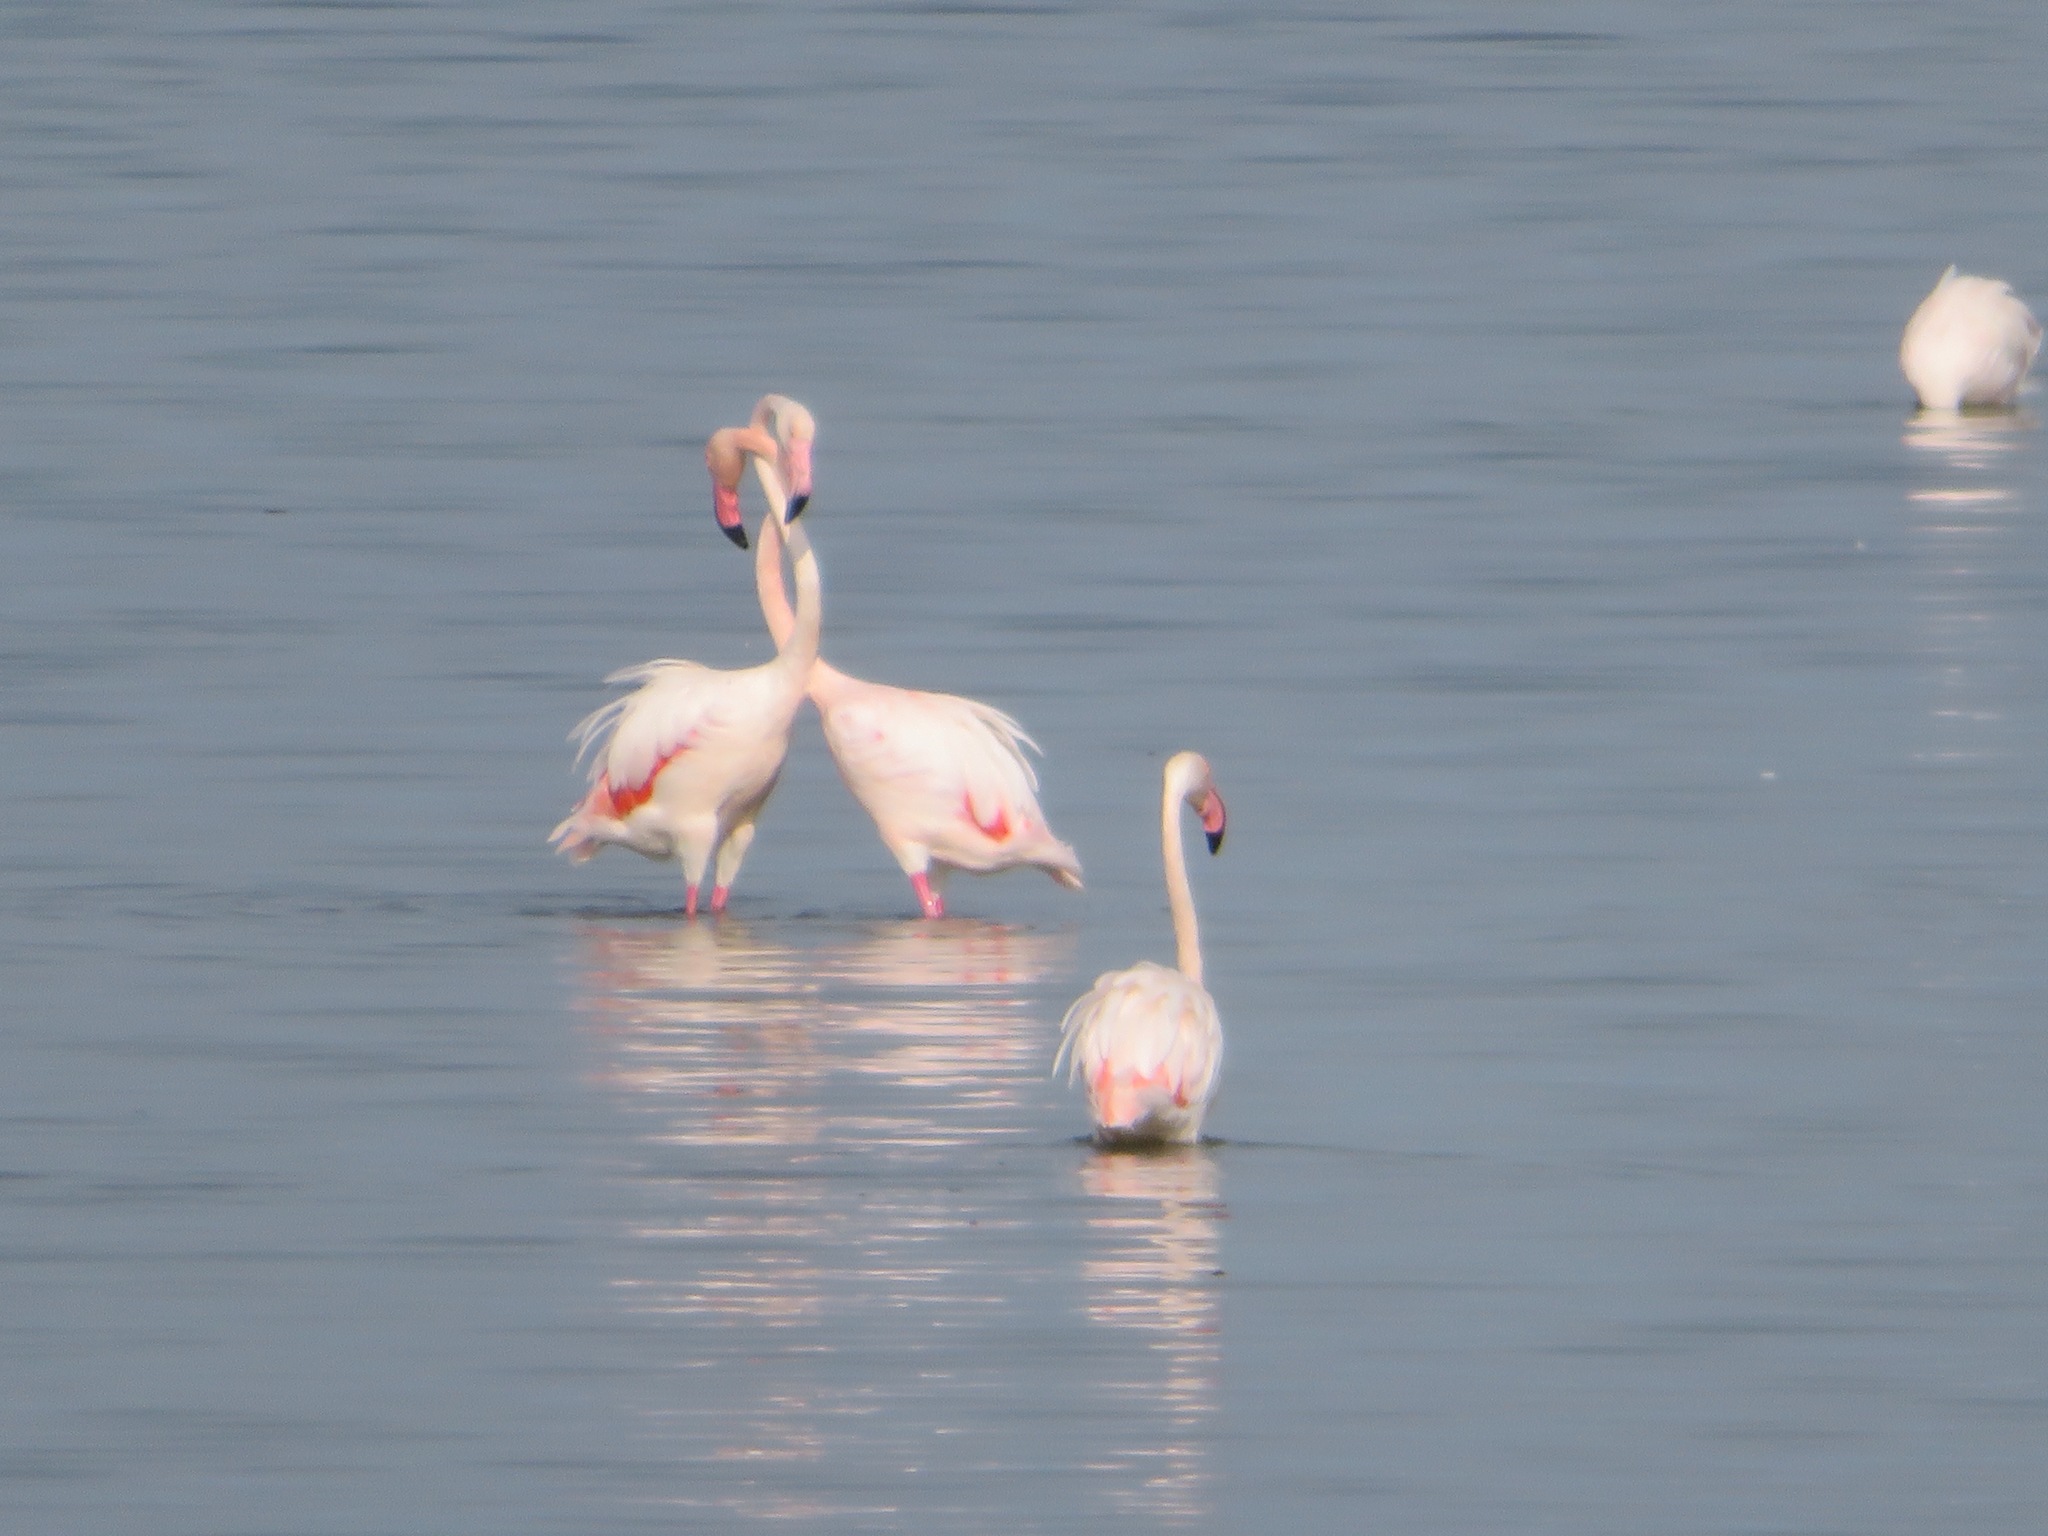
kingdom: Animalia
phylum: Chordata
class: Aves
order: Phoenicopteriformes
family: Phoenicopteridae
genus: Phoenicopterus
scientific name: Phoenicopterus roseus
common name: Greater flamingo
